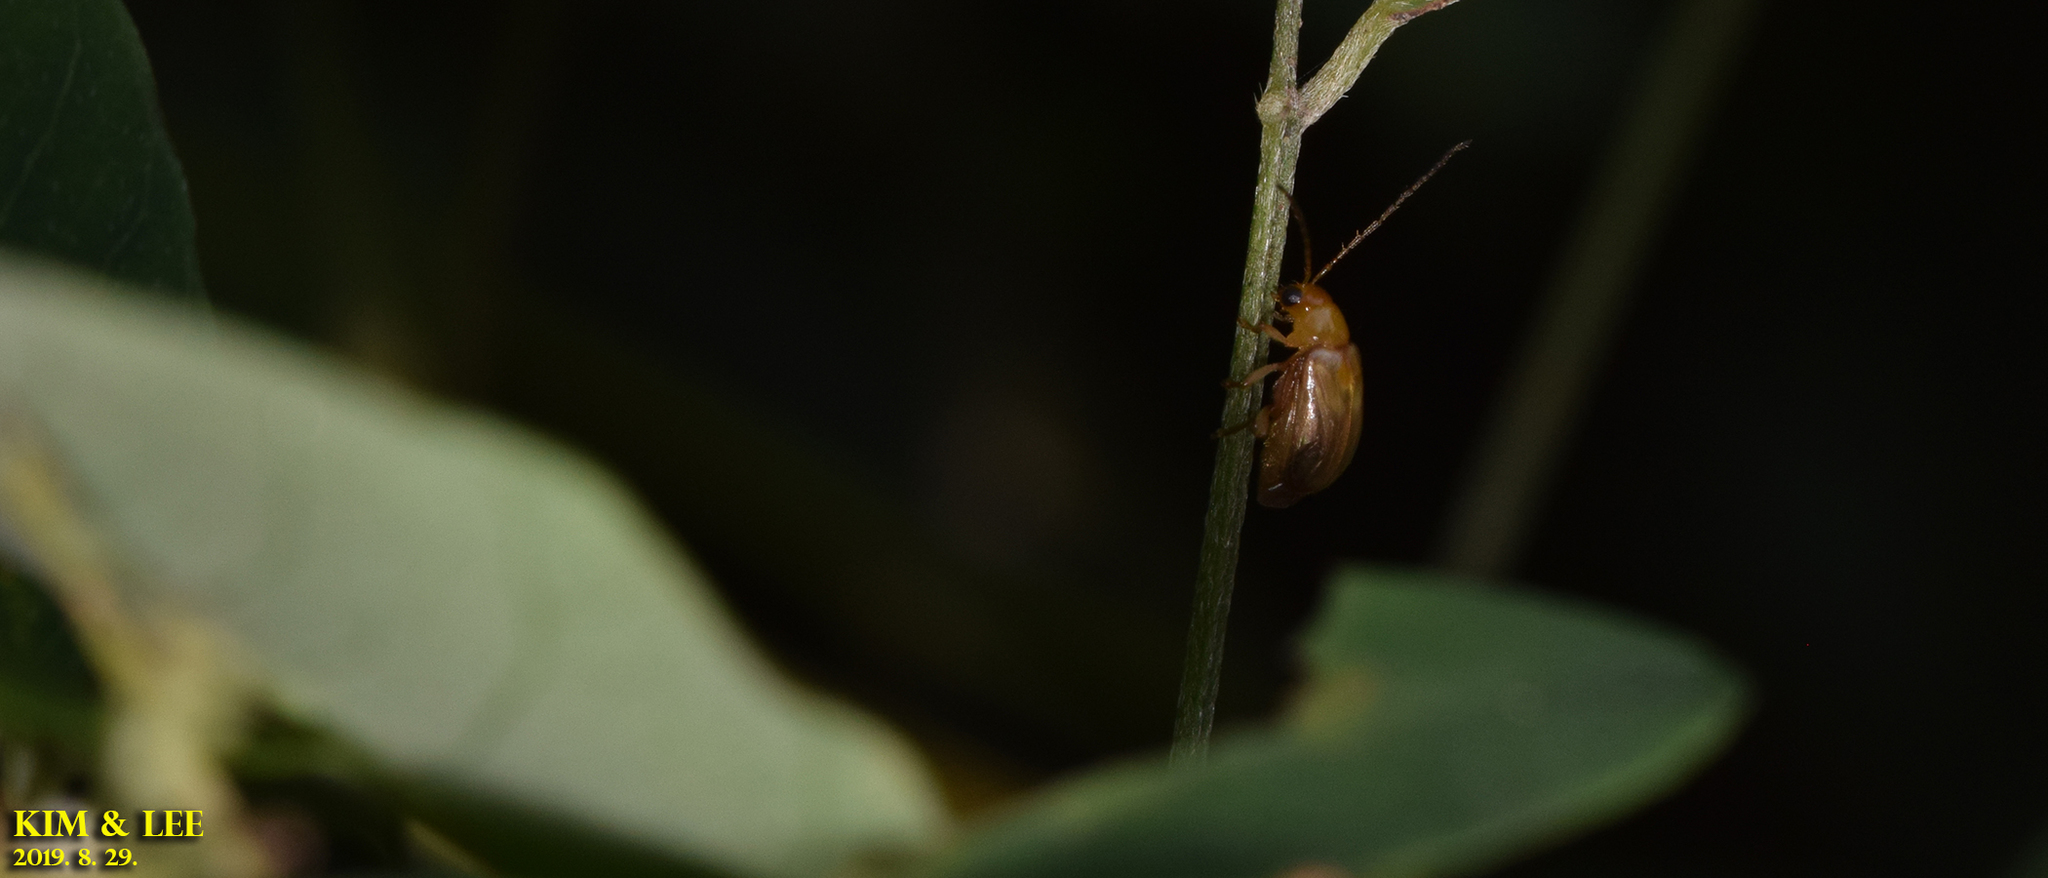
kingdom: Animalia
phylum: Arthropoda
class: Insecta
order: Coleoptera
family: Chrysomelidae
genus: Monolepta
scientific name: Monolepta shirozui
